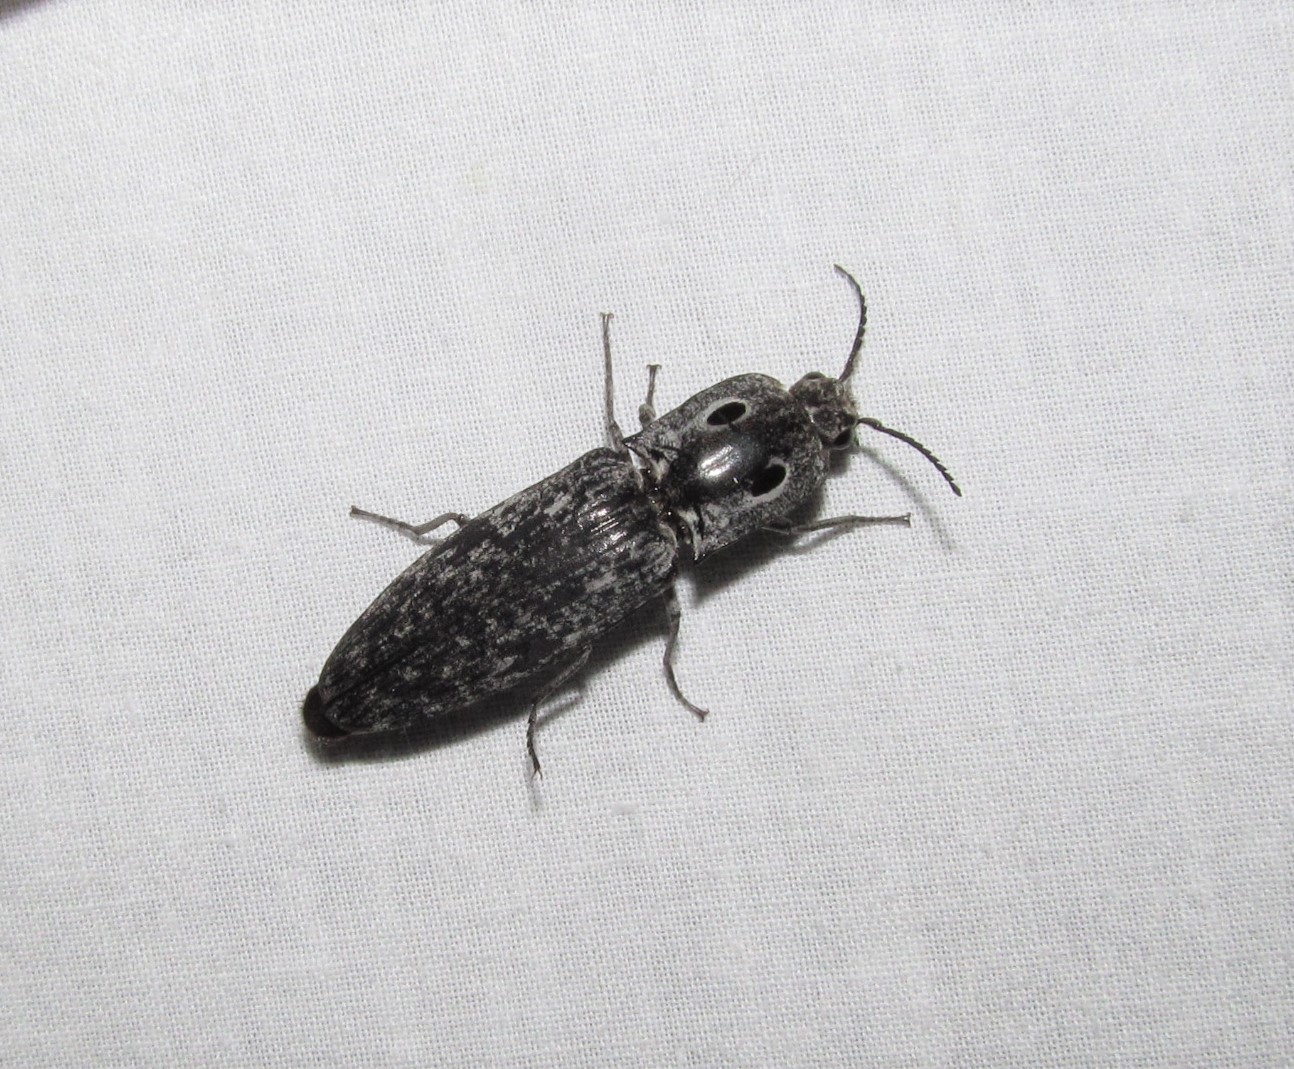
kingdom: Animalia
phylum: Arthropoda
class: Insecta
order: Coleoptera
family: Elateridae
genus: Alaus
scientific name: Alaus myops
